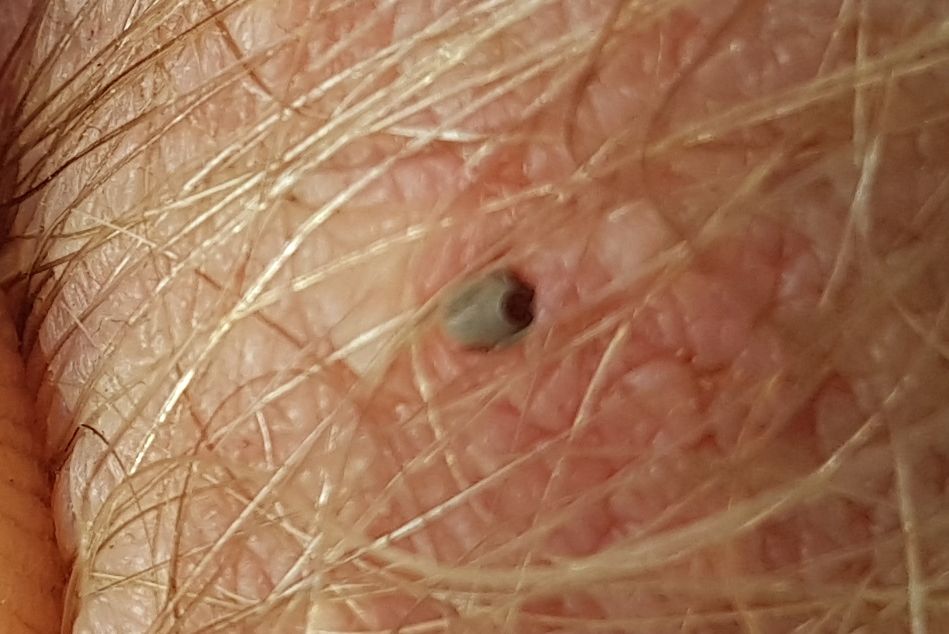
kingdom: Animalia
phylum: Arthropoda
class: Arachnida
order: Ixodida
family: Ixodidae
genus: Ixodes
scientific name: Ixodes ricinus
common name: Castor bean tick
